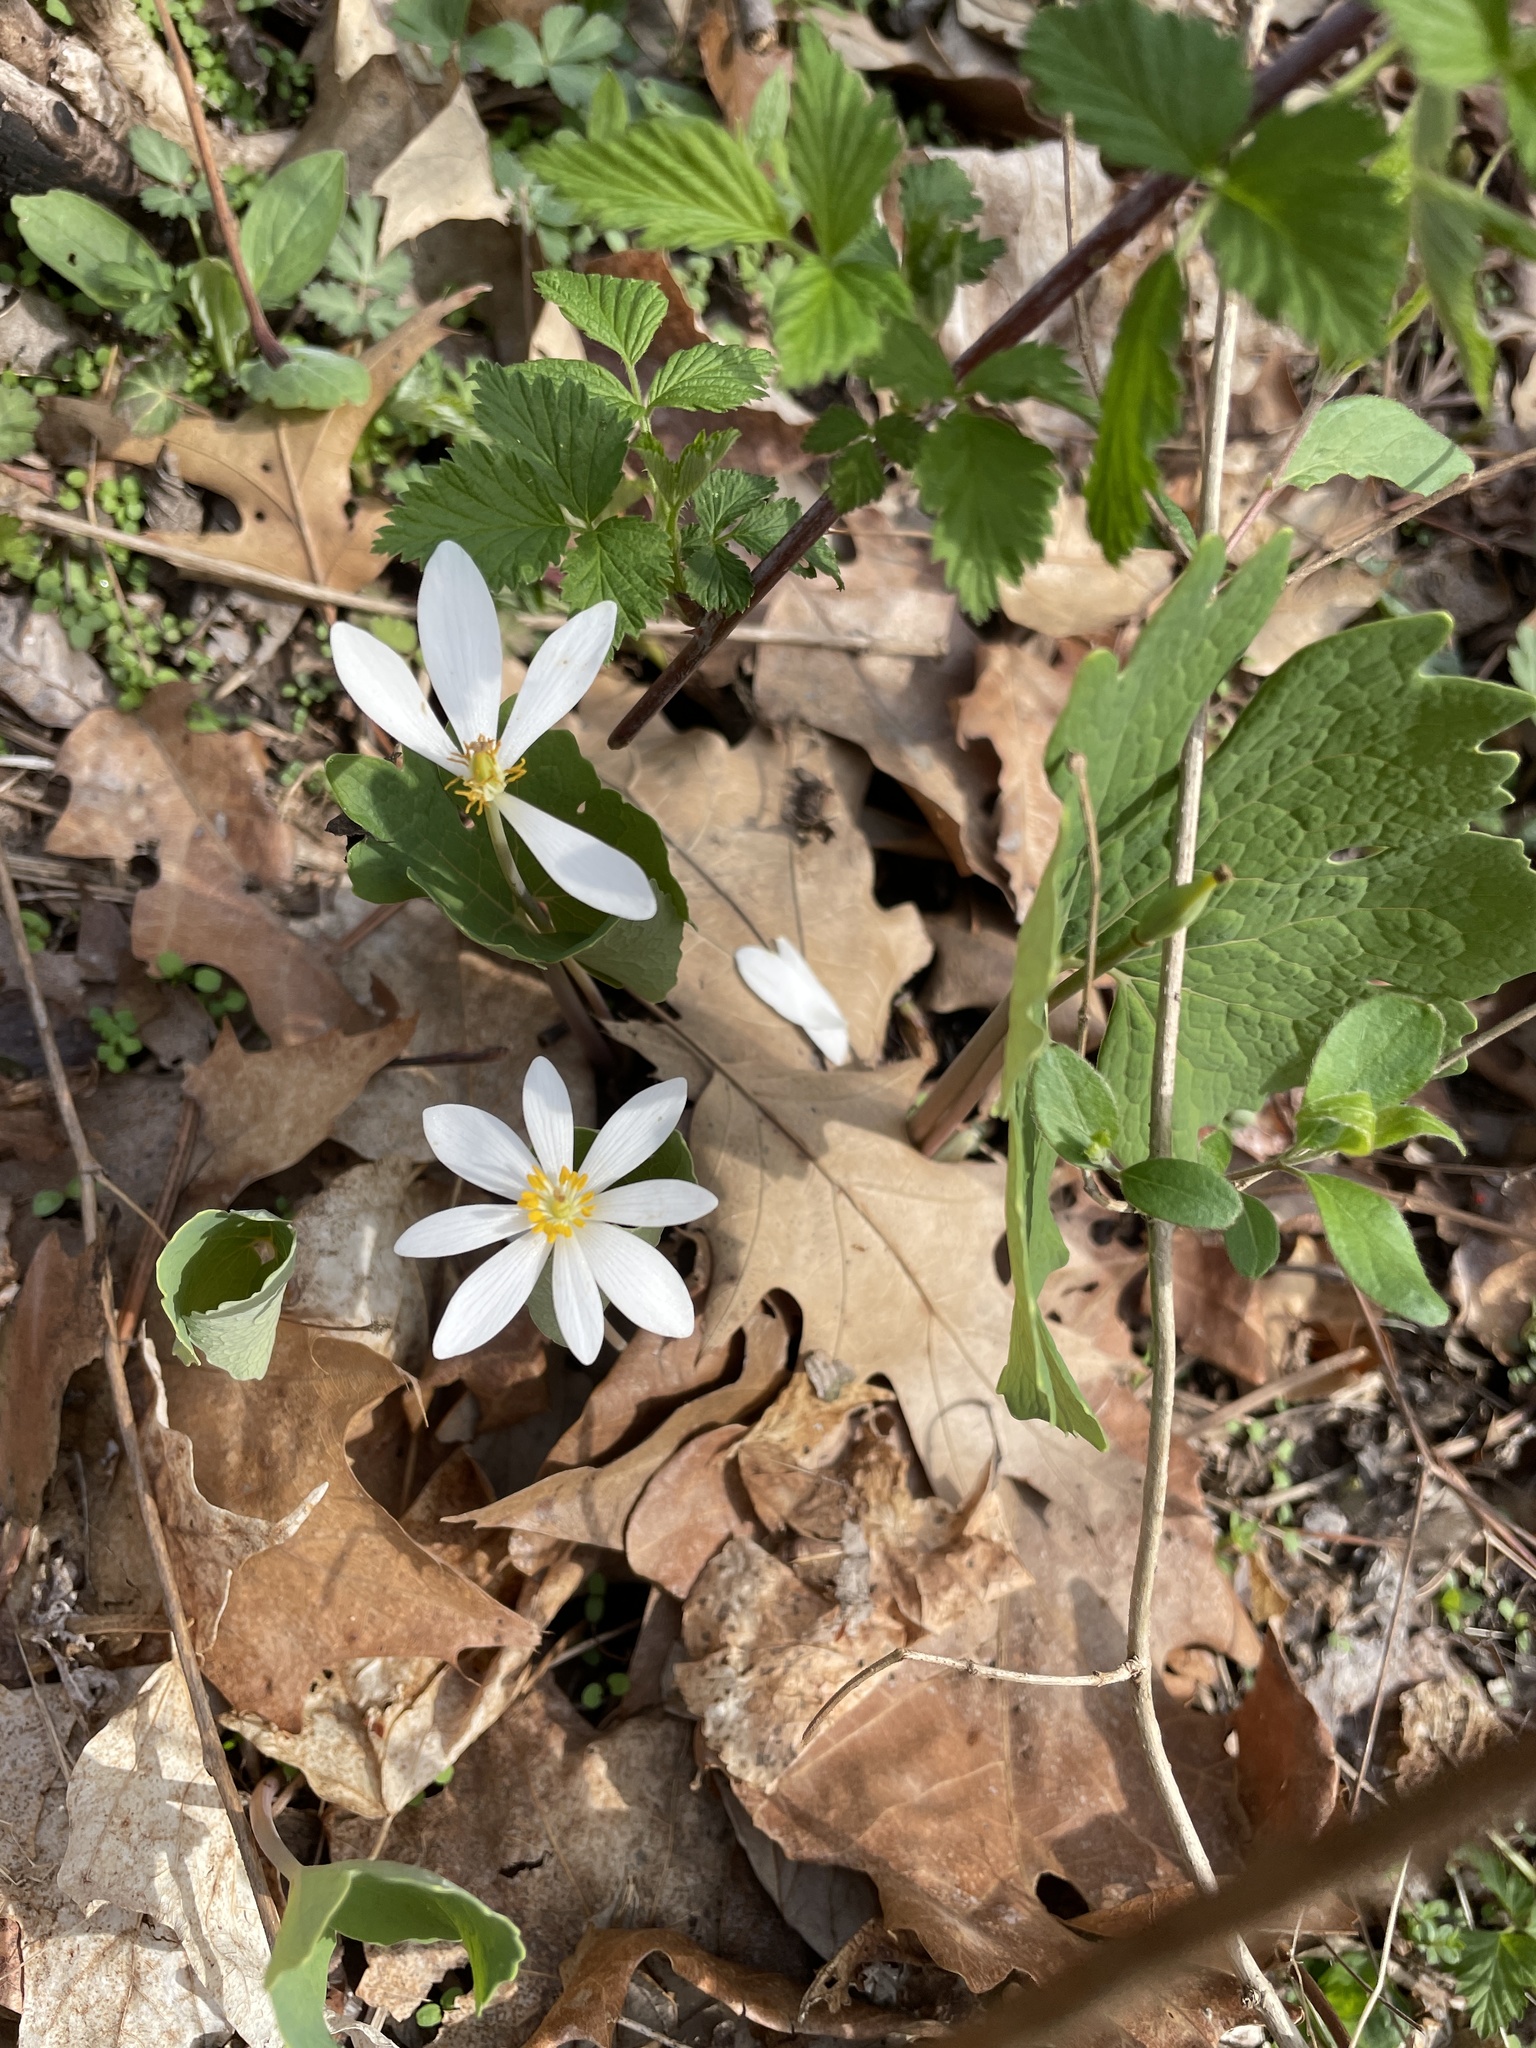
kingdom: Plantae
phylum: Tracheophyta
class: Magnoliopsida
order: Ranunculales
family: Papaveraceae
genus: Sanguinaria
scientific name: Sanguinaria canadensis
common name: Bloodroot
